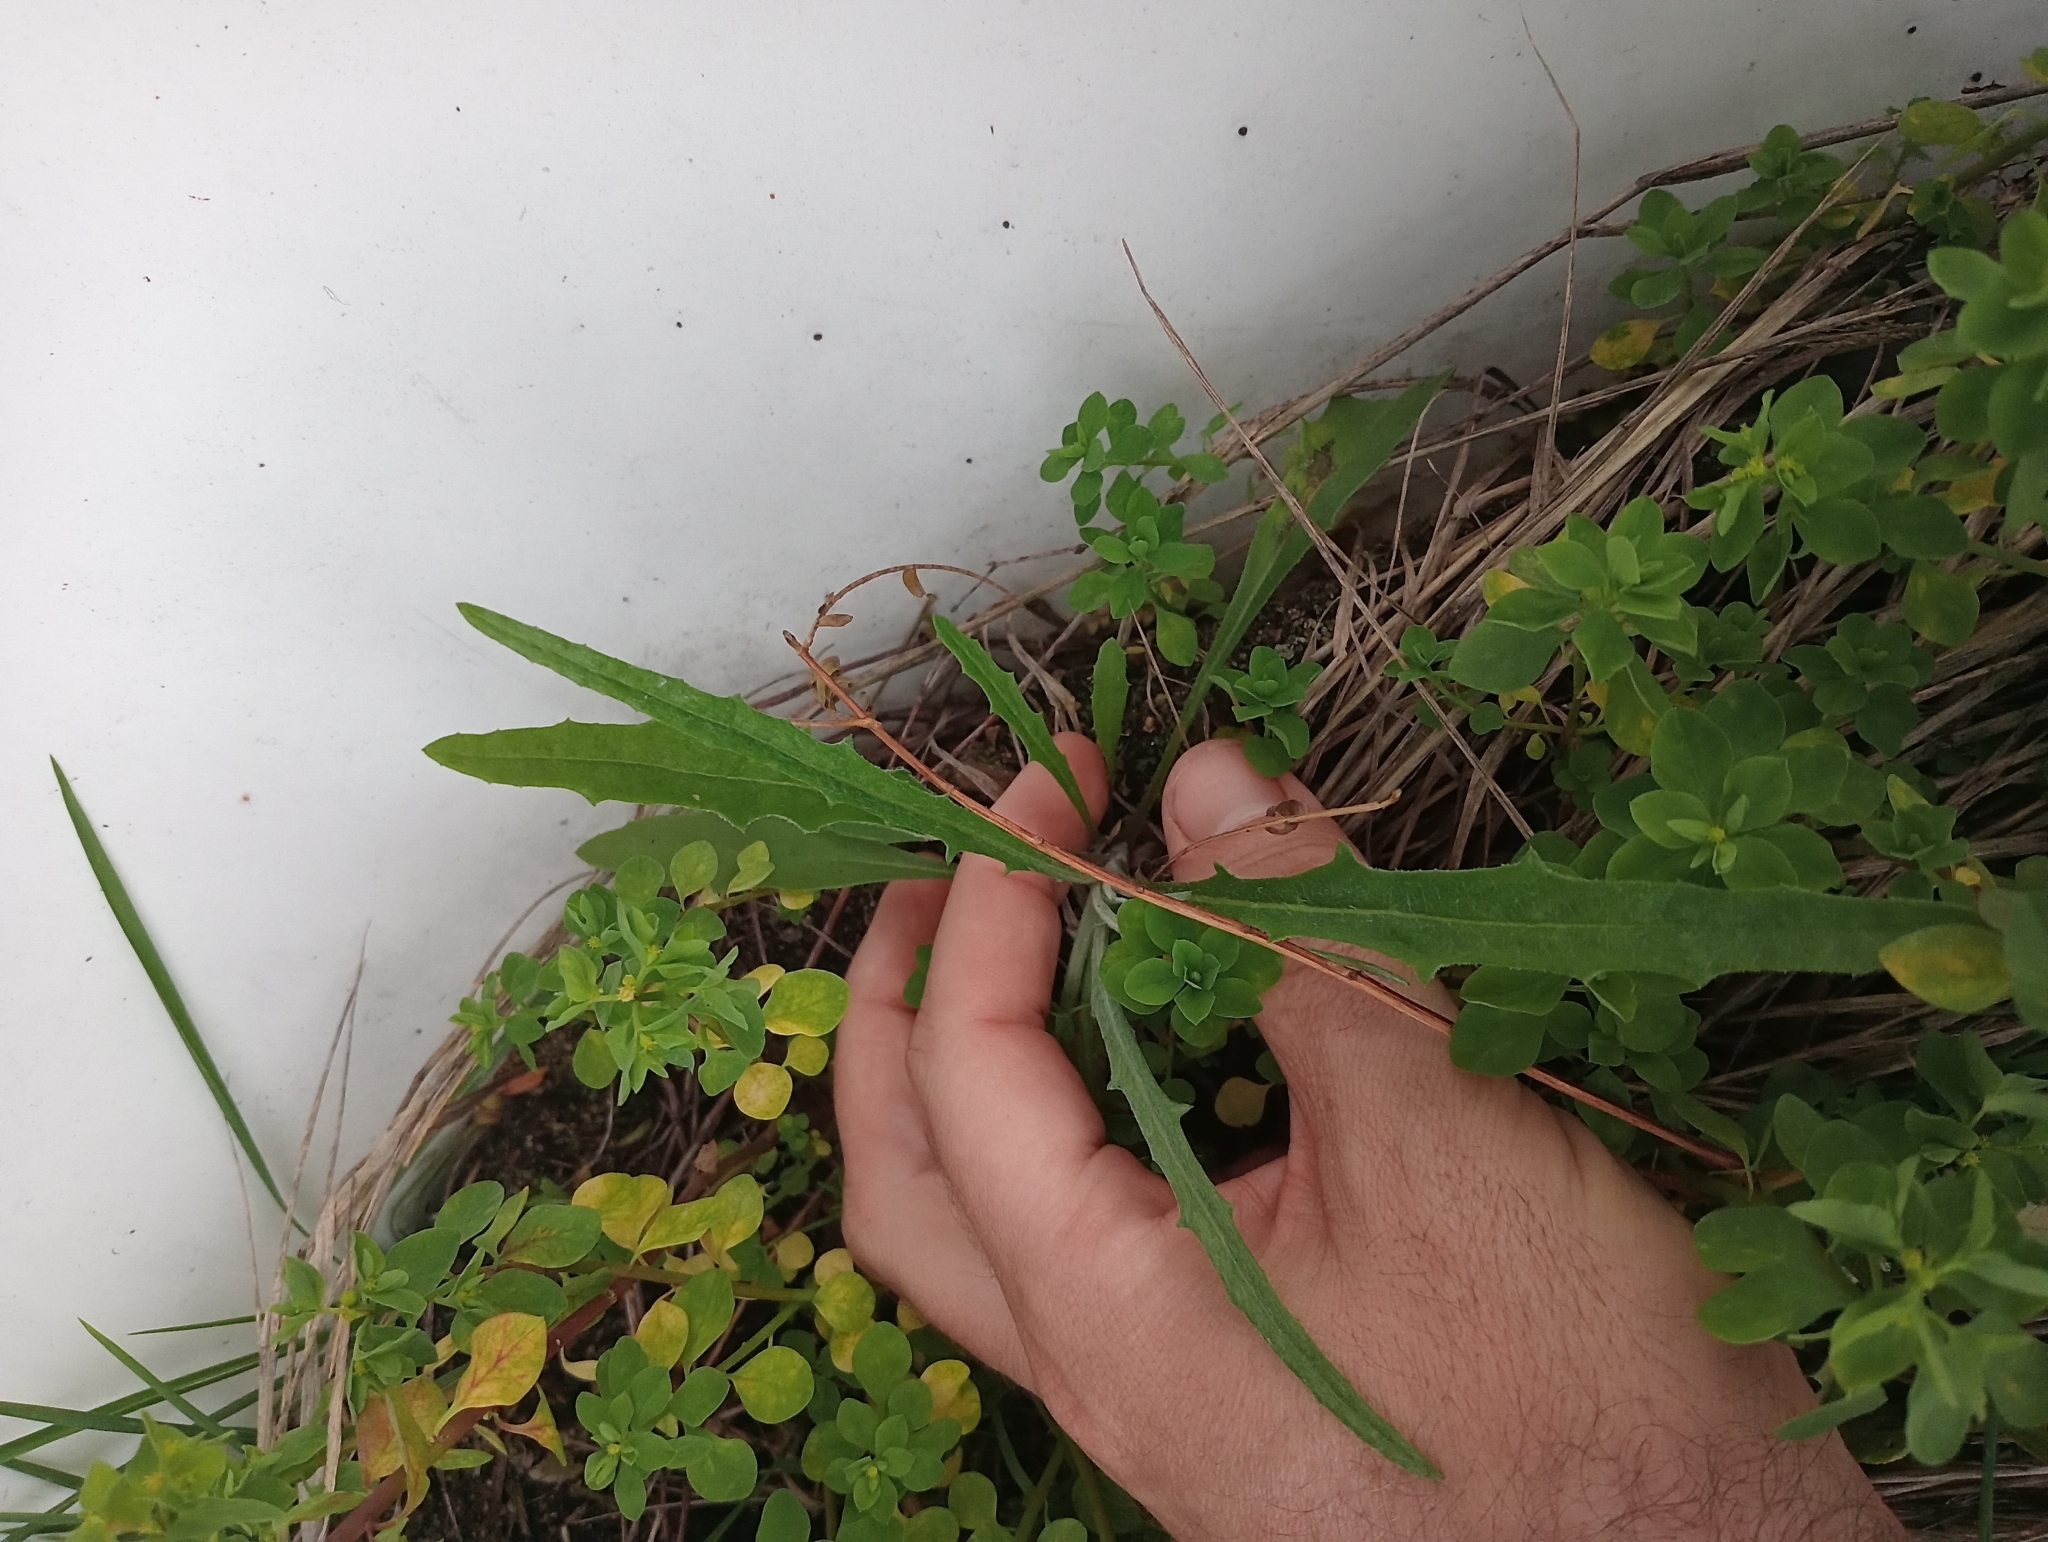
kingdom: Plantae
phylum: Tracheophyta
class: Magnoliopsida
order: Asterales
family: Asteraceae
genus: Senecio
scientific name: Senecio quadridentatus
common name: Cotton fireweed
